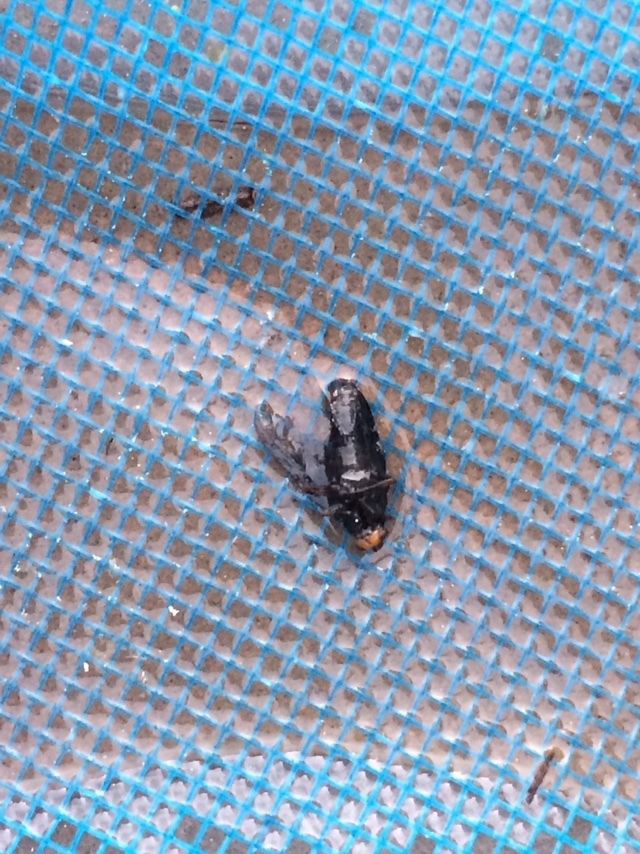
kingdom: Animalia
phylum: Arthropoda
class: Insecta
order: Diptera
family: Stratiomyidae
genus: Inopus
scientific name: Inopus rubriceps
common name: Soldier fly
